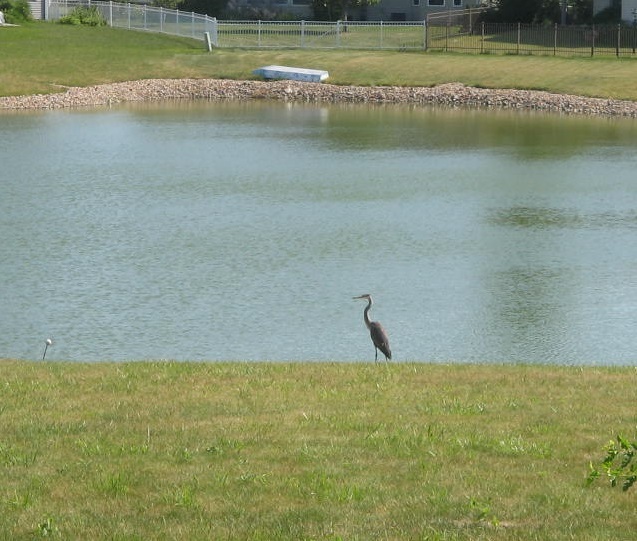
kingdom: Animalia
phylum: Chordata
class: Aves
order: Pelecaniformes
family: Ardeidae
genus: Ardea
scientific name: Ardea herodias
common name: Great blue heron
